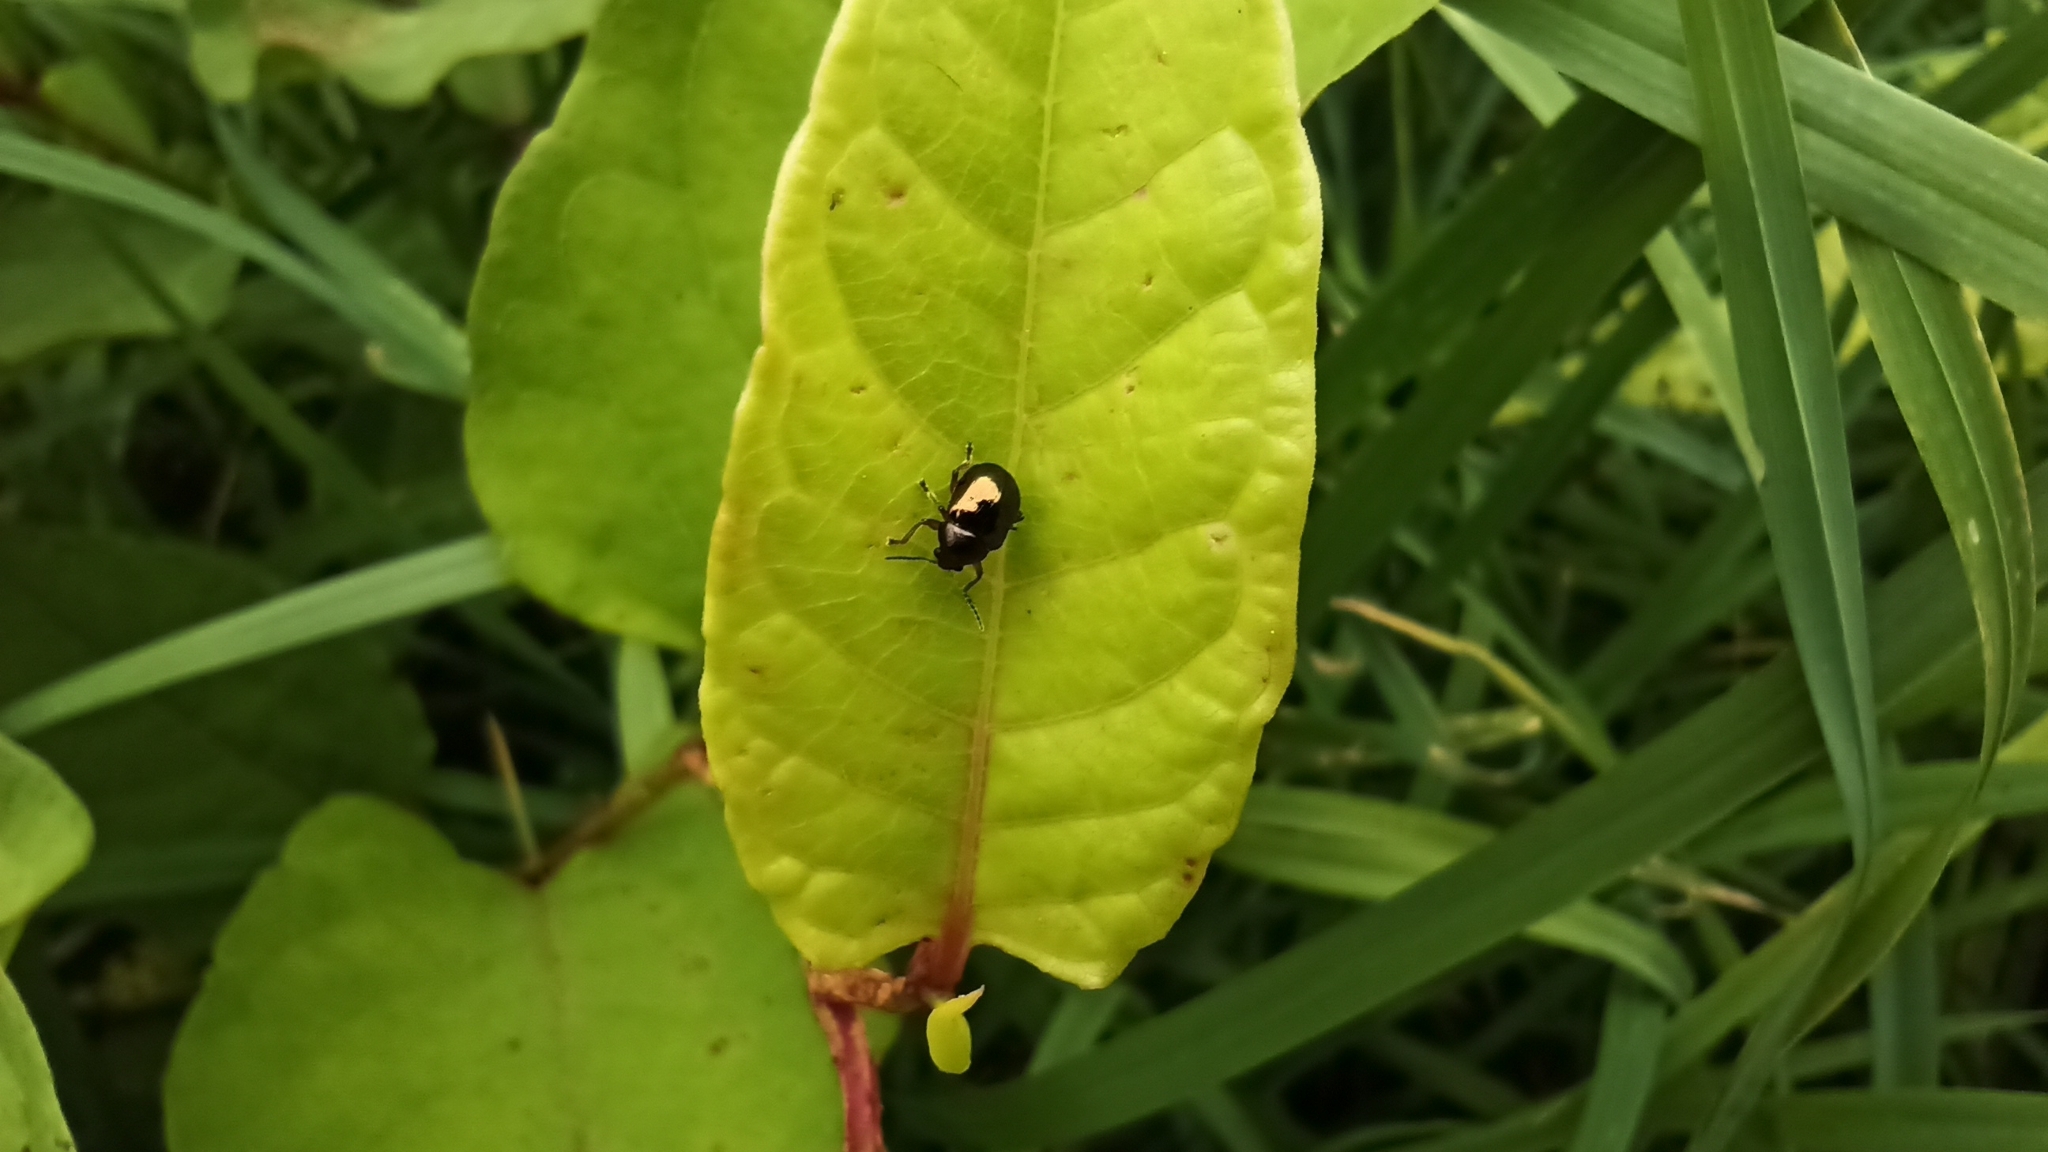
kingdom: Animalia
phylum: Arthropoda
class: Insecta
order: Coleoptera
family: Chrysomelidae
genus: Colasposoma
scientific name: Colasposoma dauricum
